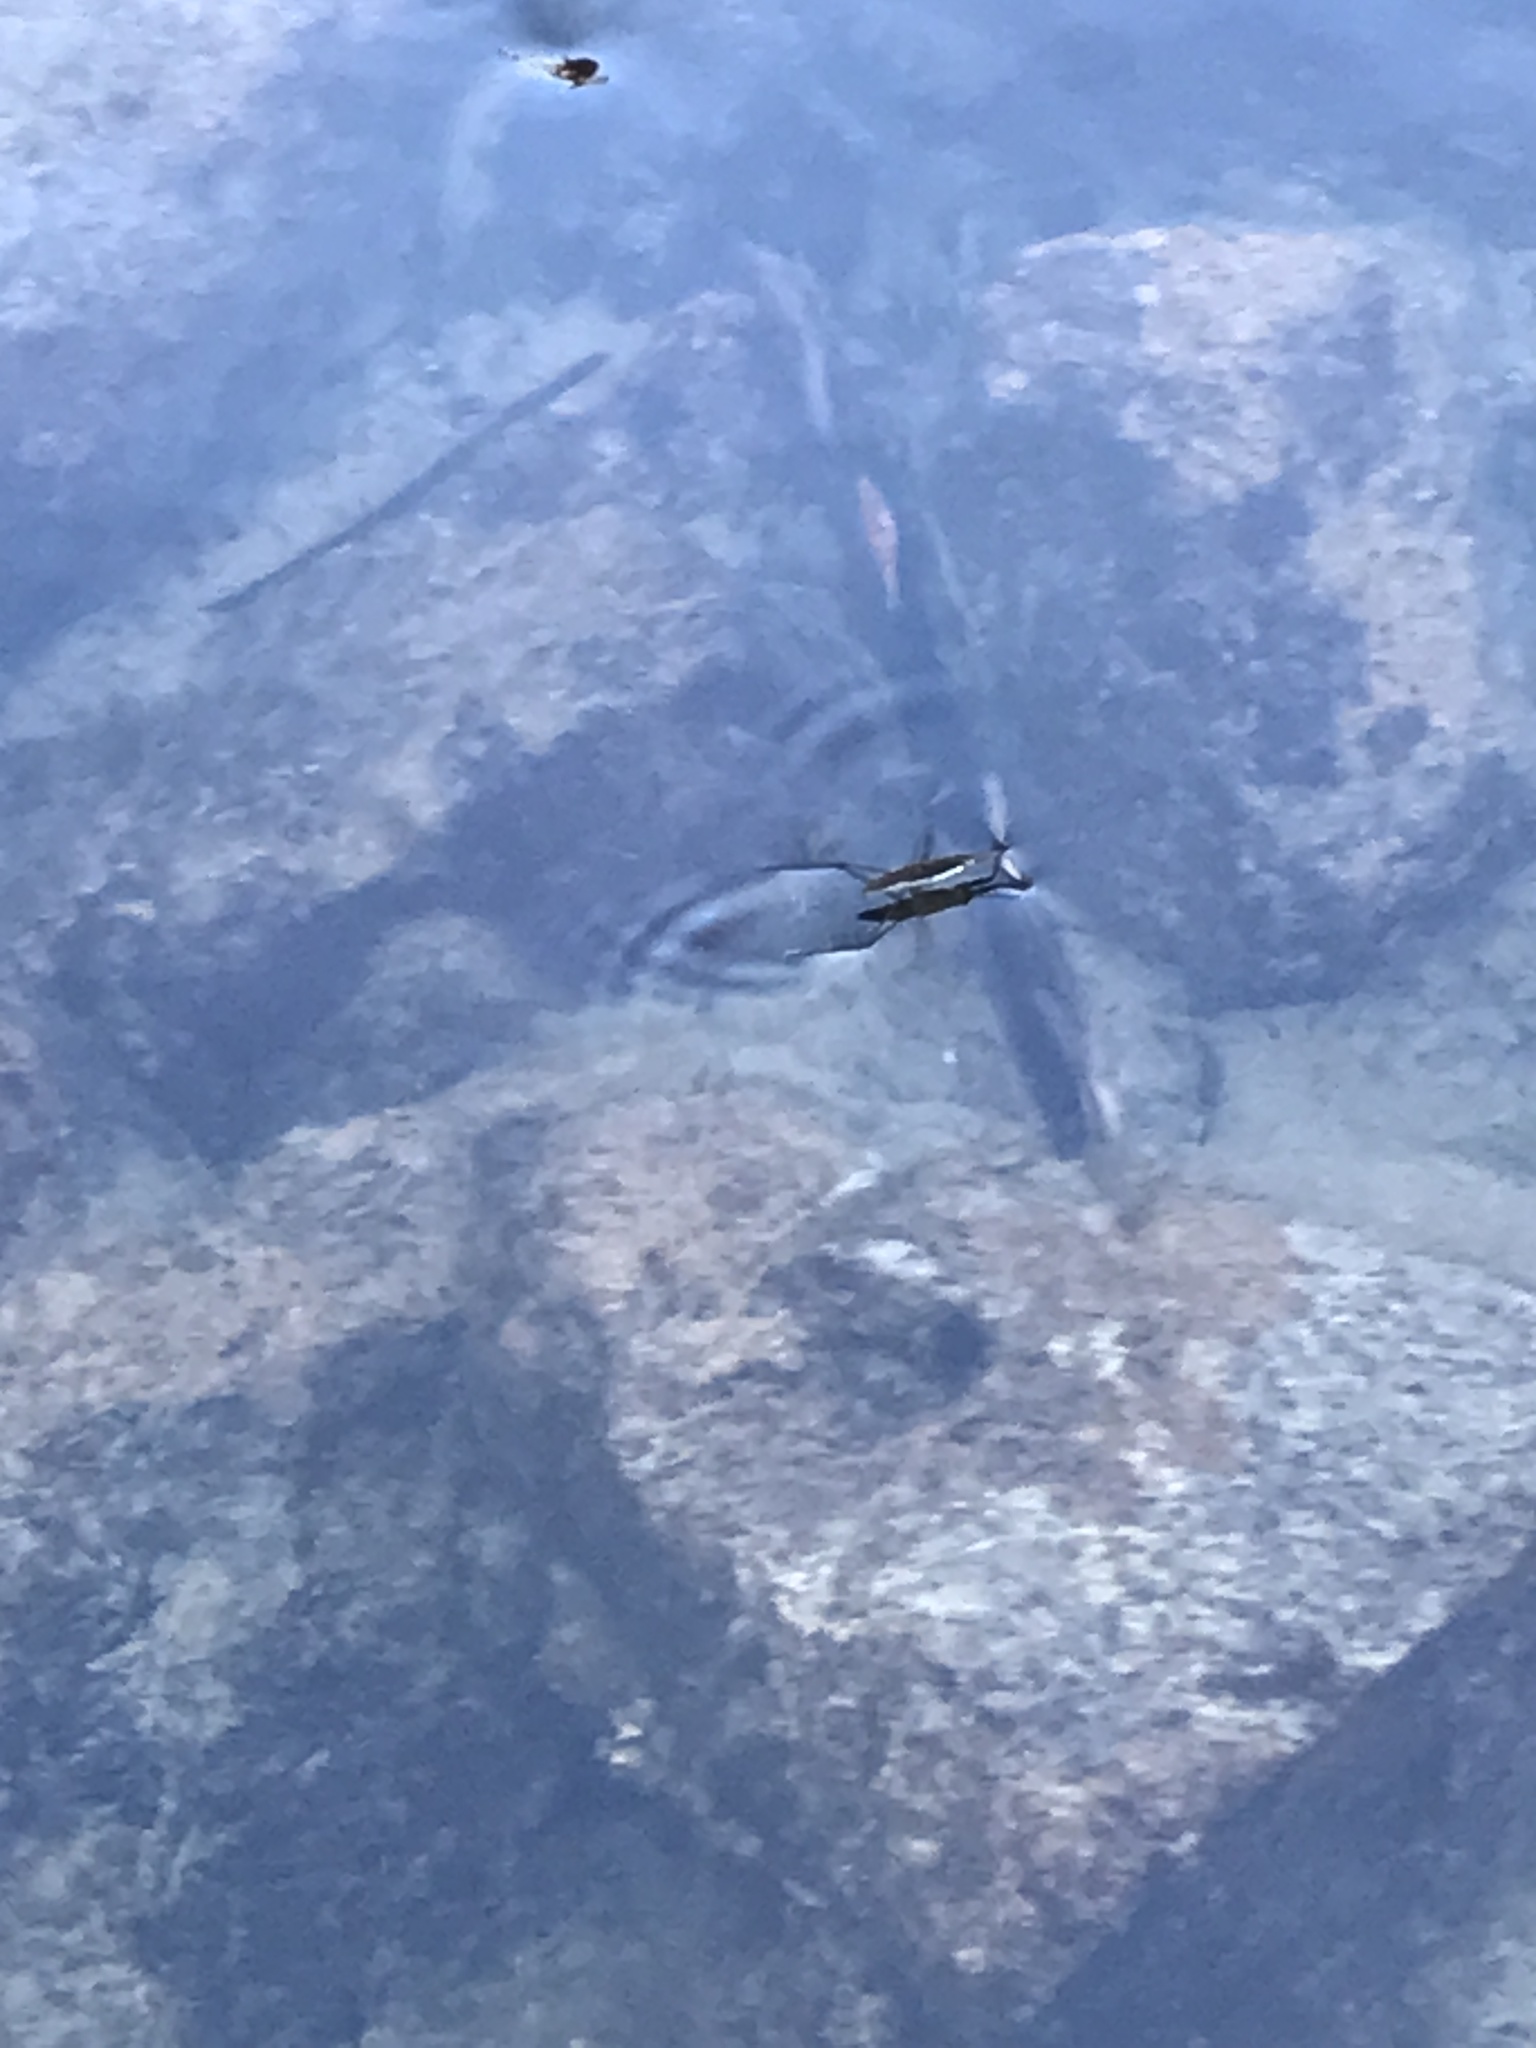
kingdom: Animalia
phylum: Arthropoda
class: Insecta
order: Hemiptera
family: Gerridae
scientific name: Gerridae
